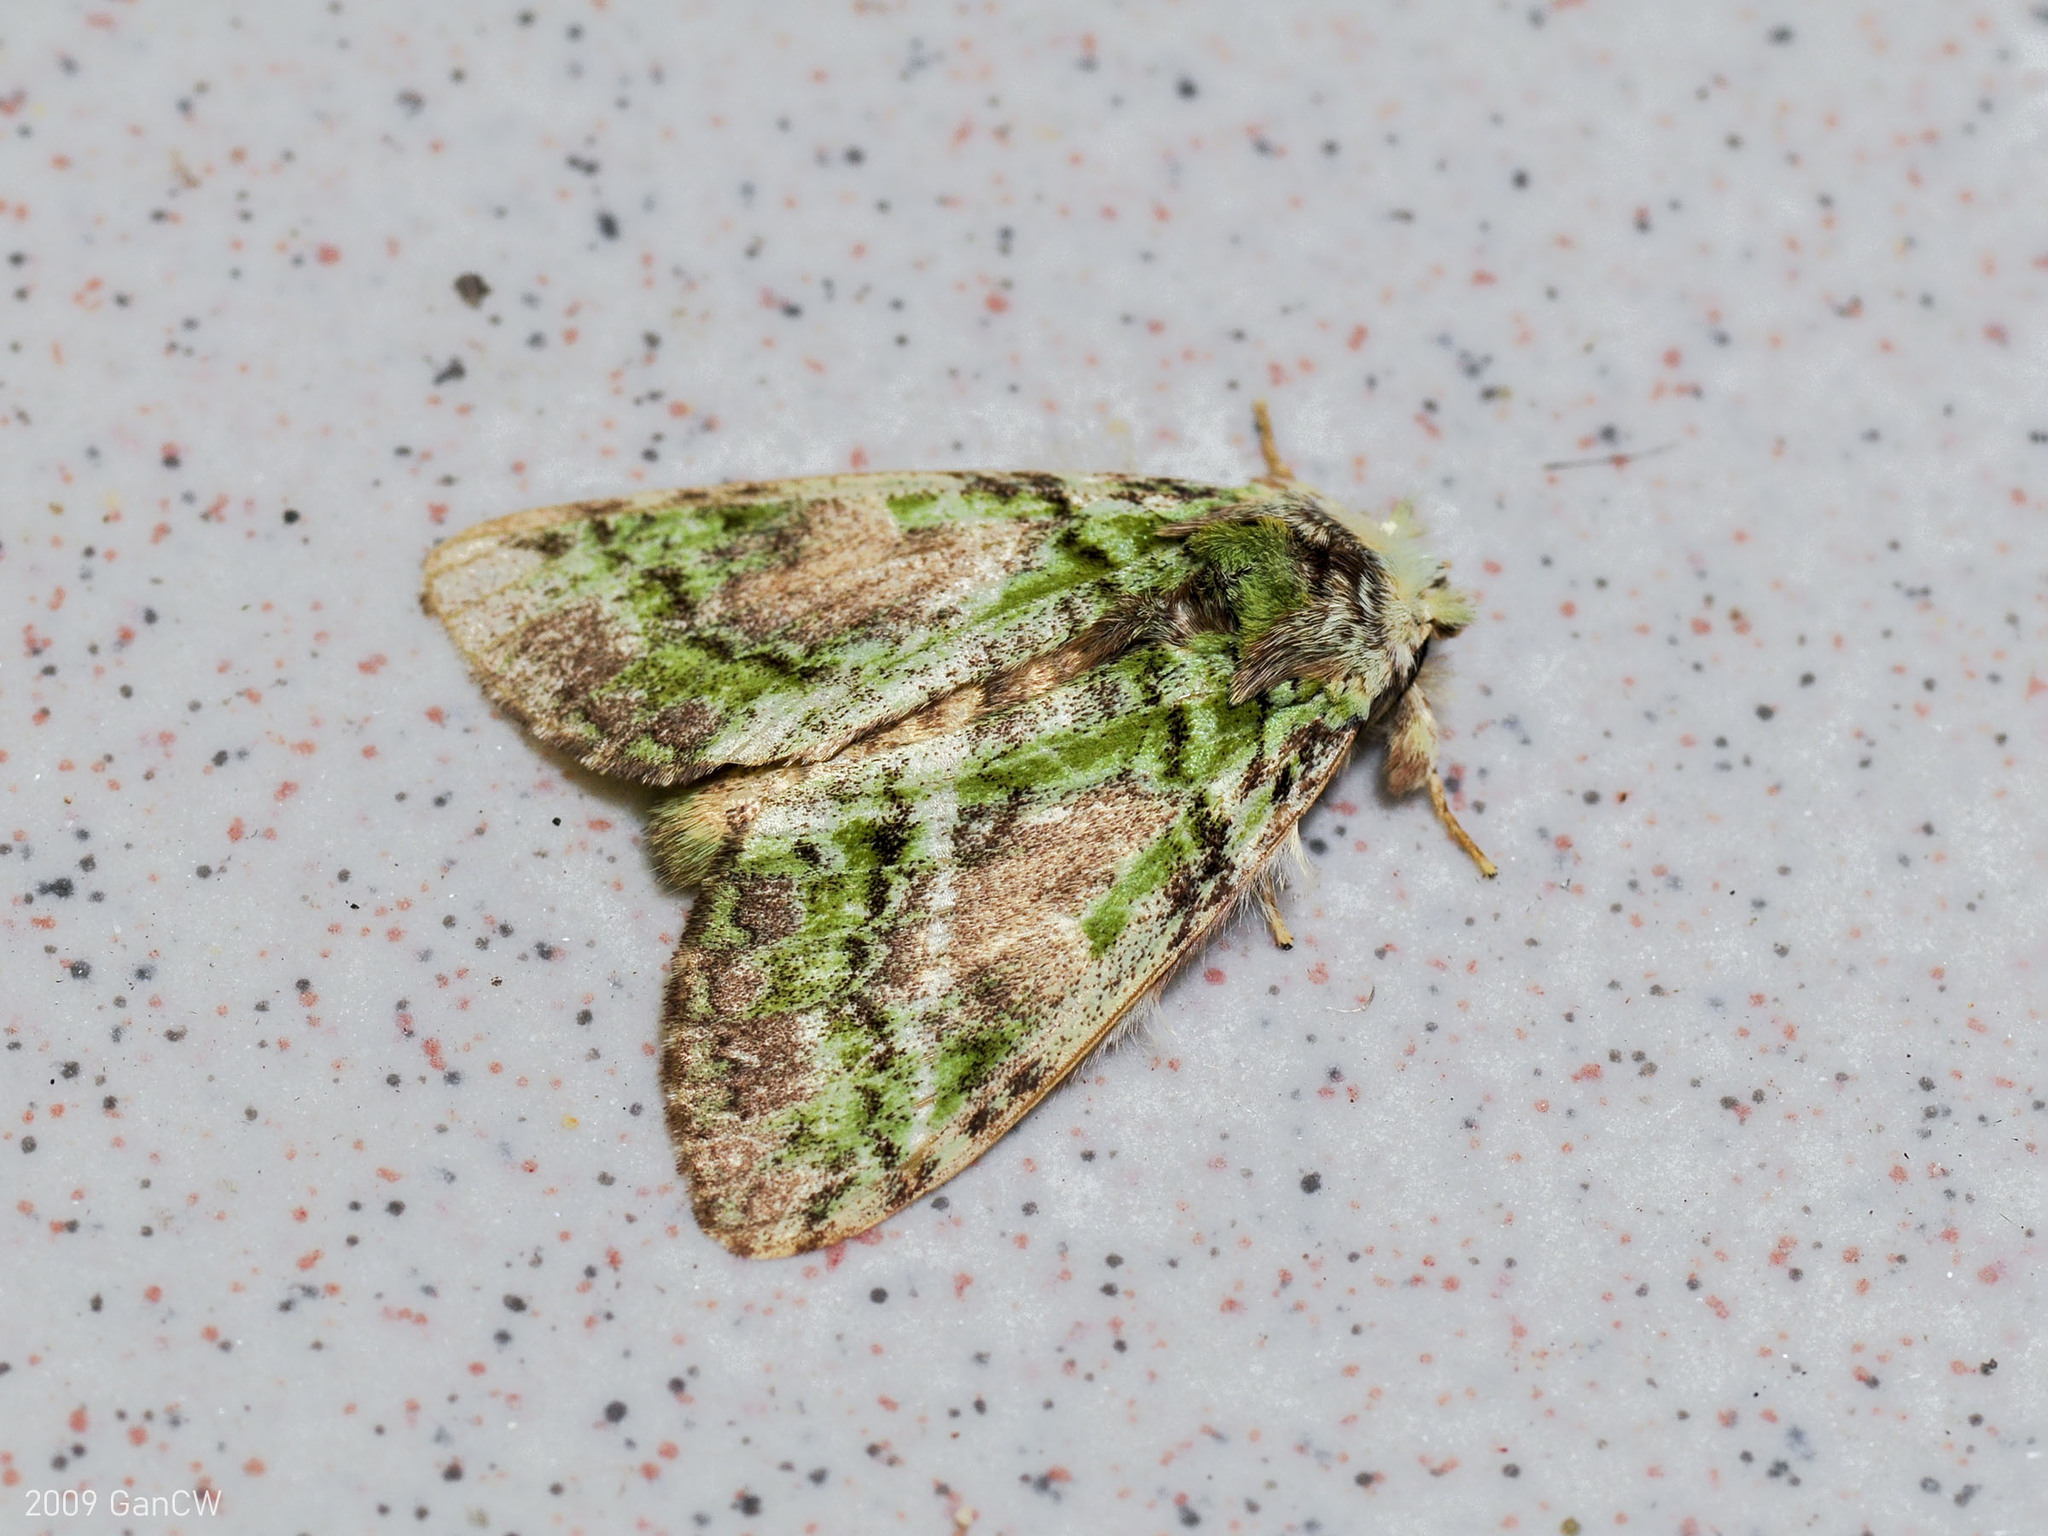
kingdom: Animalia
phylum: Arthropoda
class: Insecta
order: Lepidoptera
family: Notodontidae
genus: Somera
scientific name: Somera viridifusca
